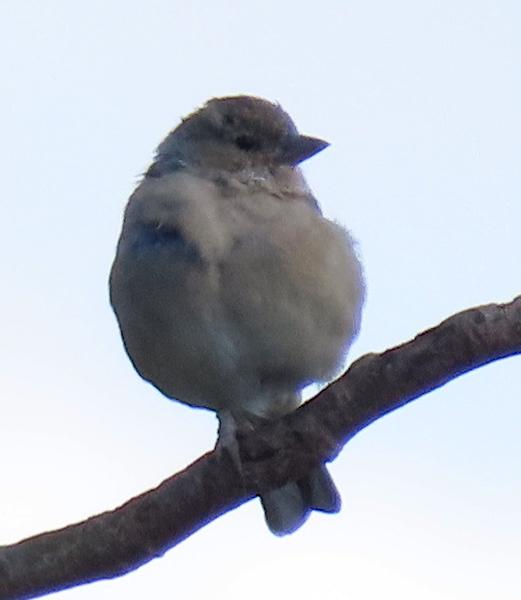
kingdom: Animalia
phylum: Chordata
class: Aves
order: Passeriformes
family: Fringillidae
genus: Fringilla
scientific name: Fringilla coelebs
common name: Common chaffinch
